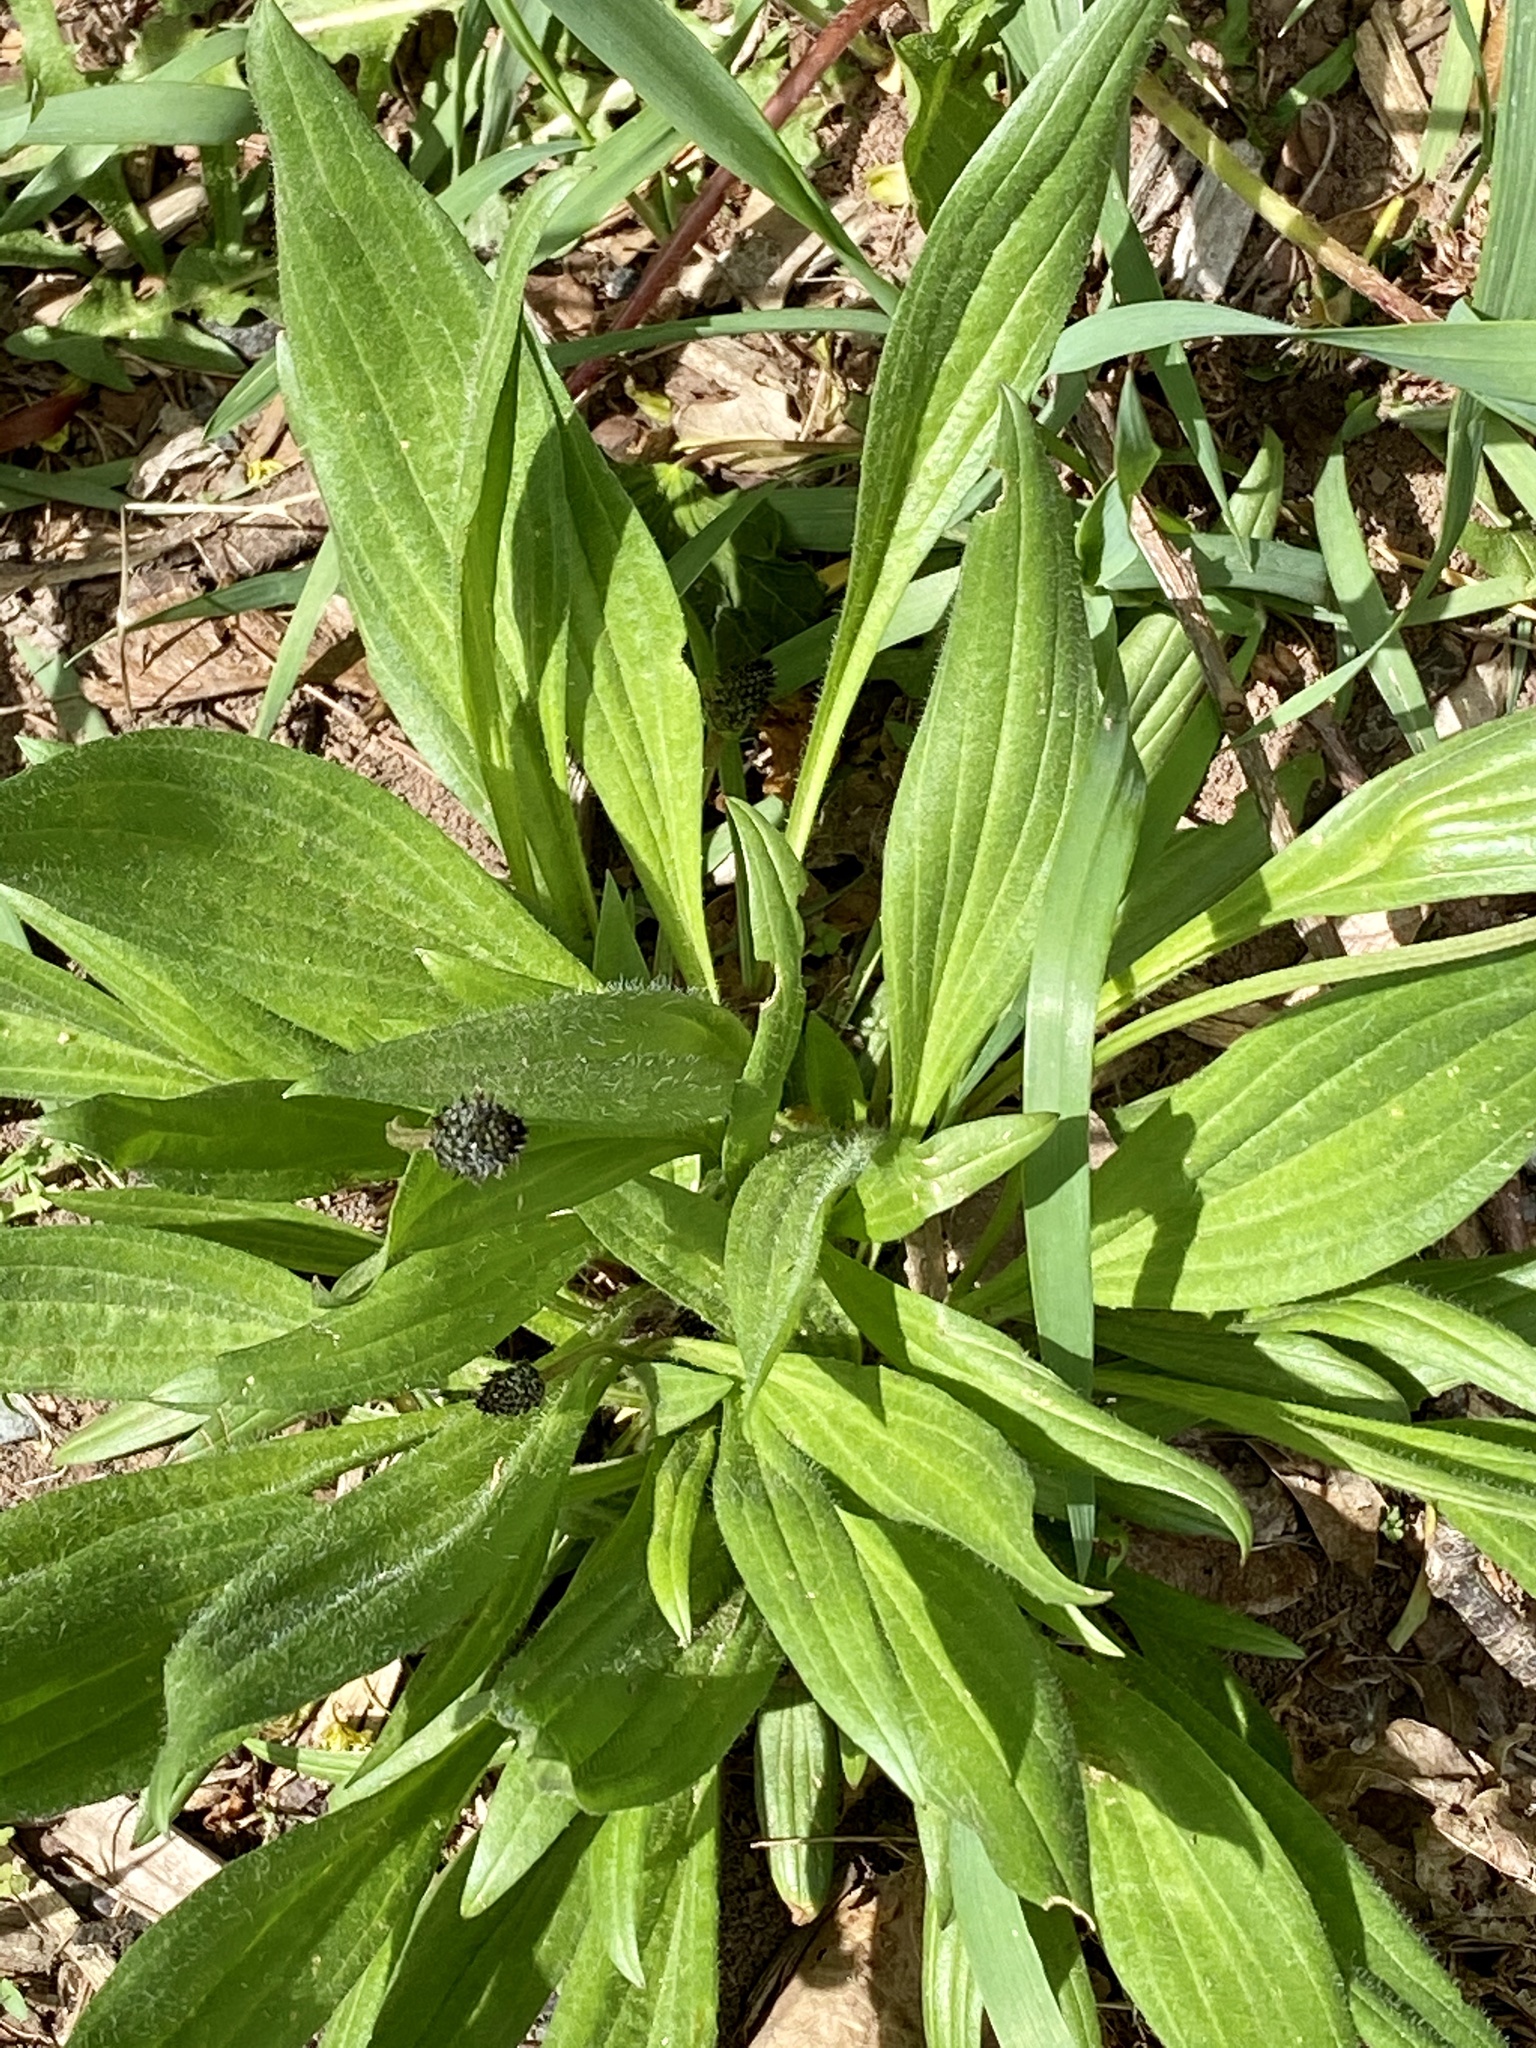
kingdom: Plantae
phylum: Tracheophyta
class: Magnoliopsida
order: Lamiales
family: Plantaginaceae
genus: Plantago
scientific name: Plantago lanceolata
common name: Ribwort plantain
